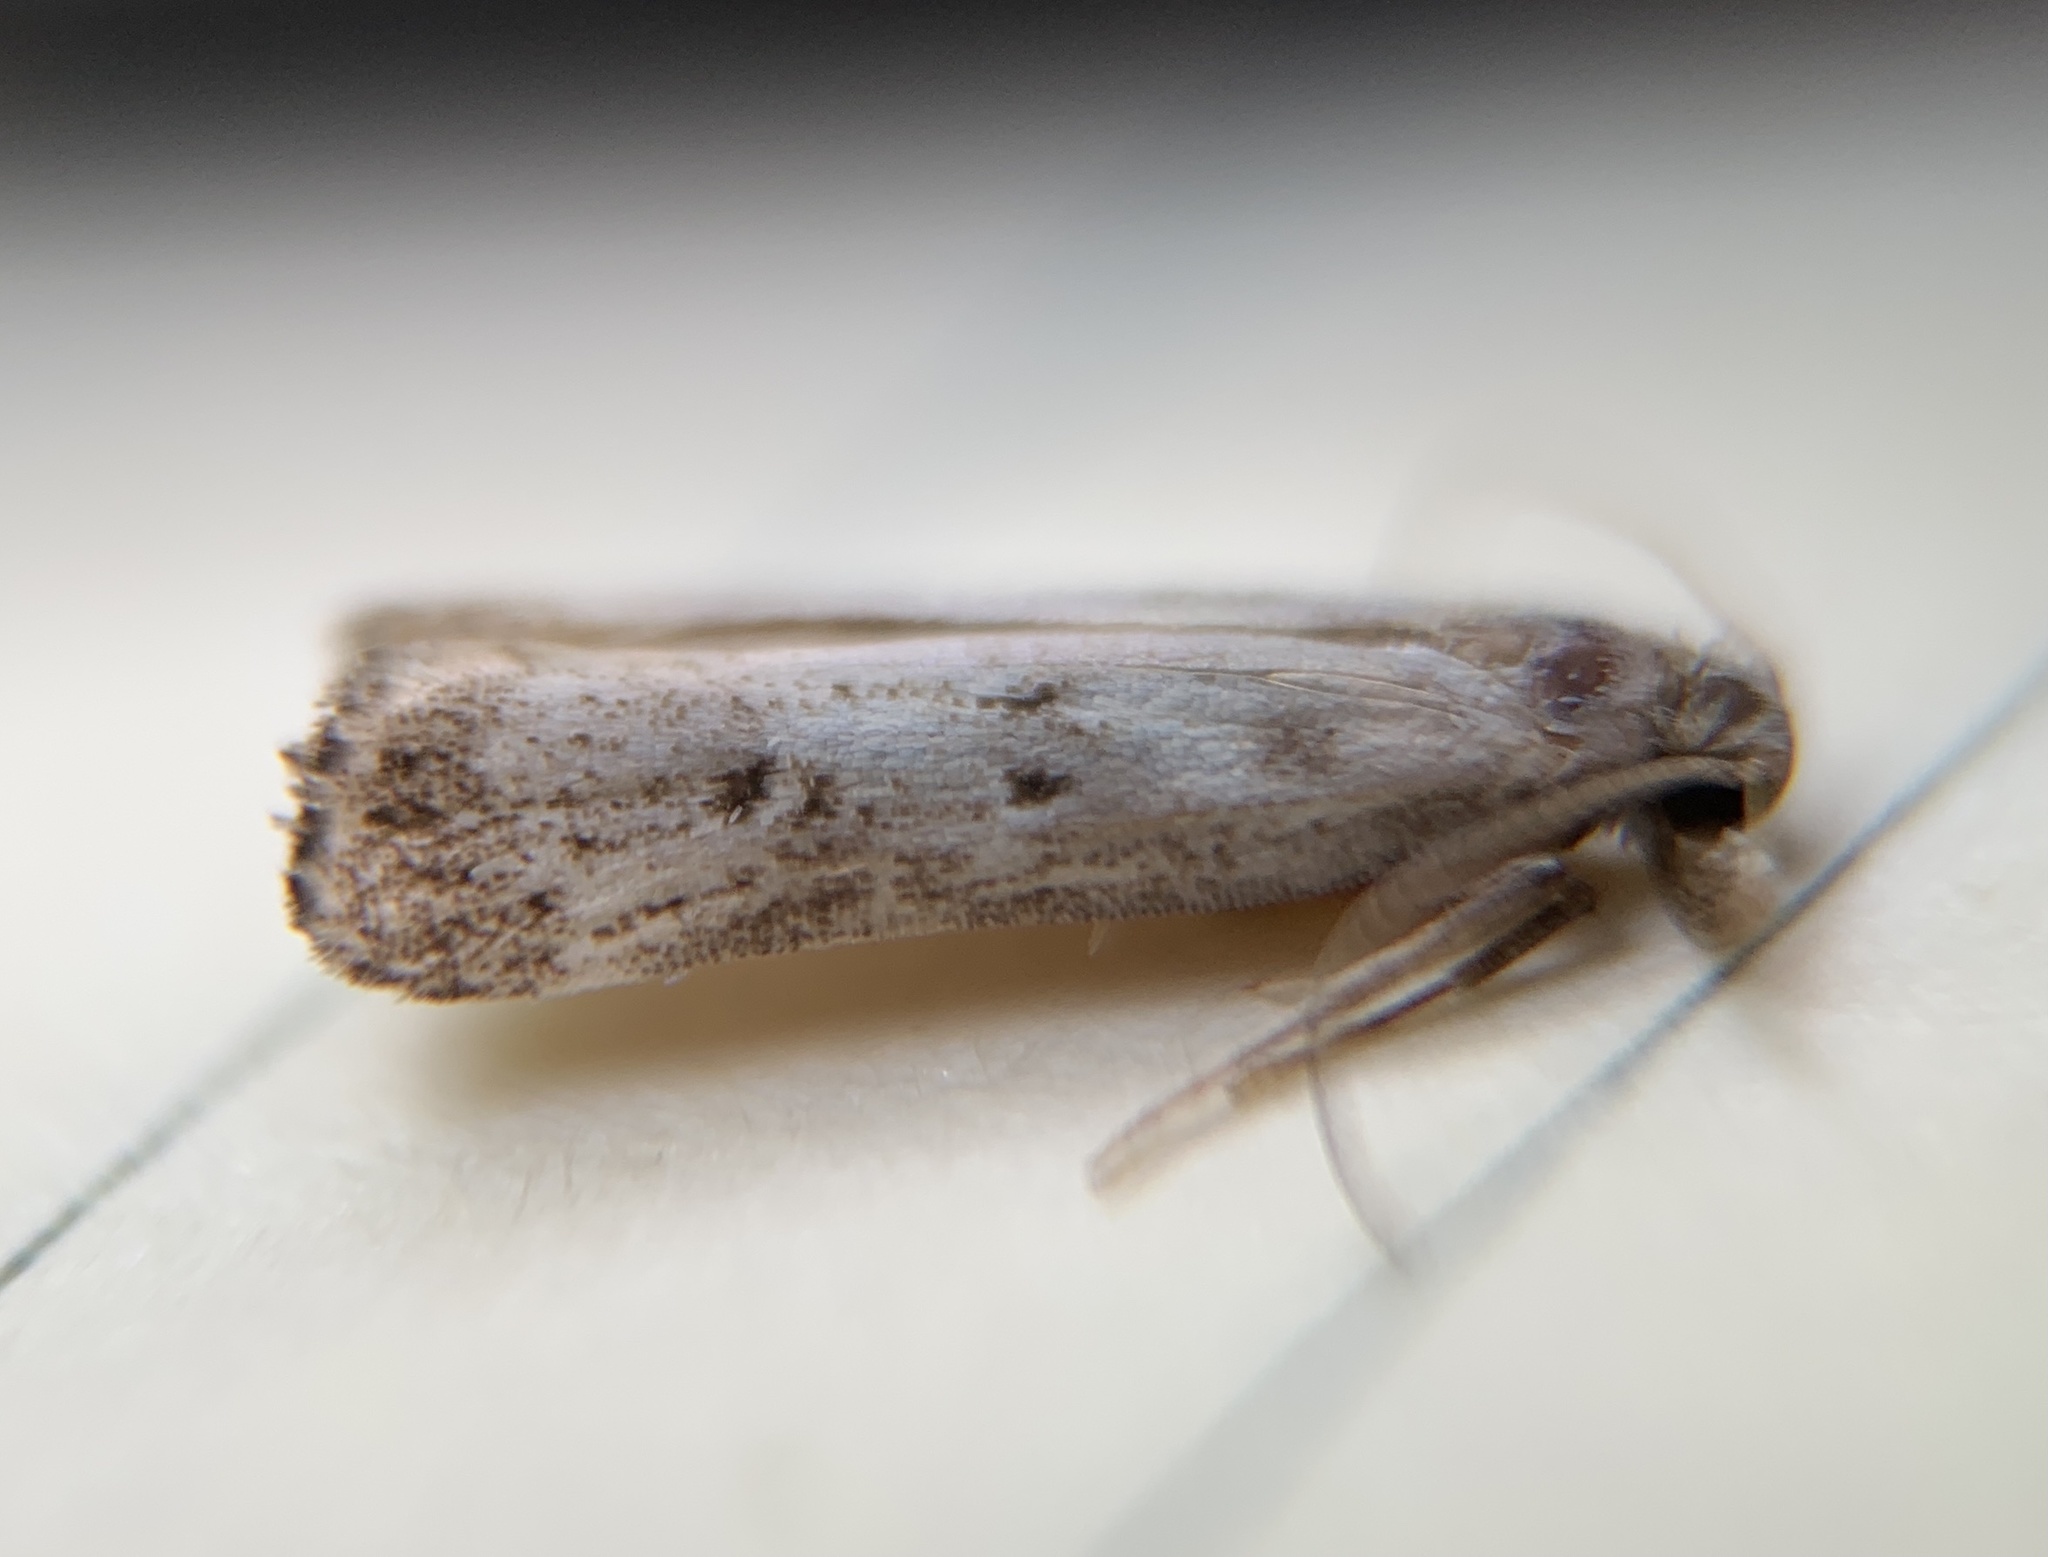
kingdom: Animalia
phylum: Arthropoda
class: Insecta
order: Lepidoptera
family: Gelechiidae
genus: Dichomeris
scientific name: Dichomeris inversella
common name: Inverse dichomeris moth
